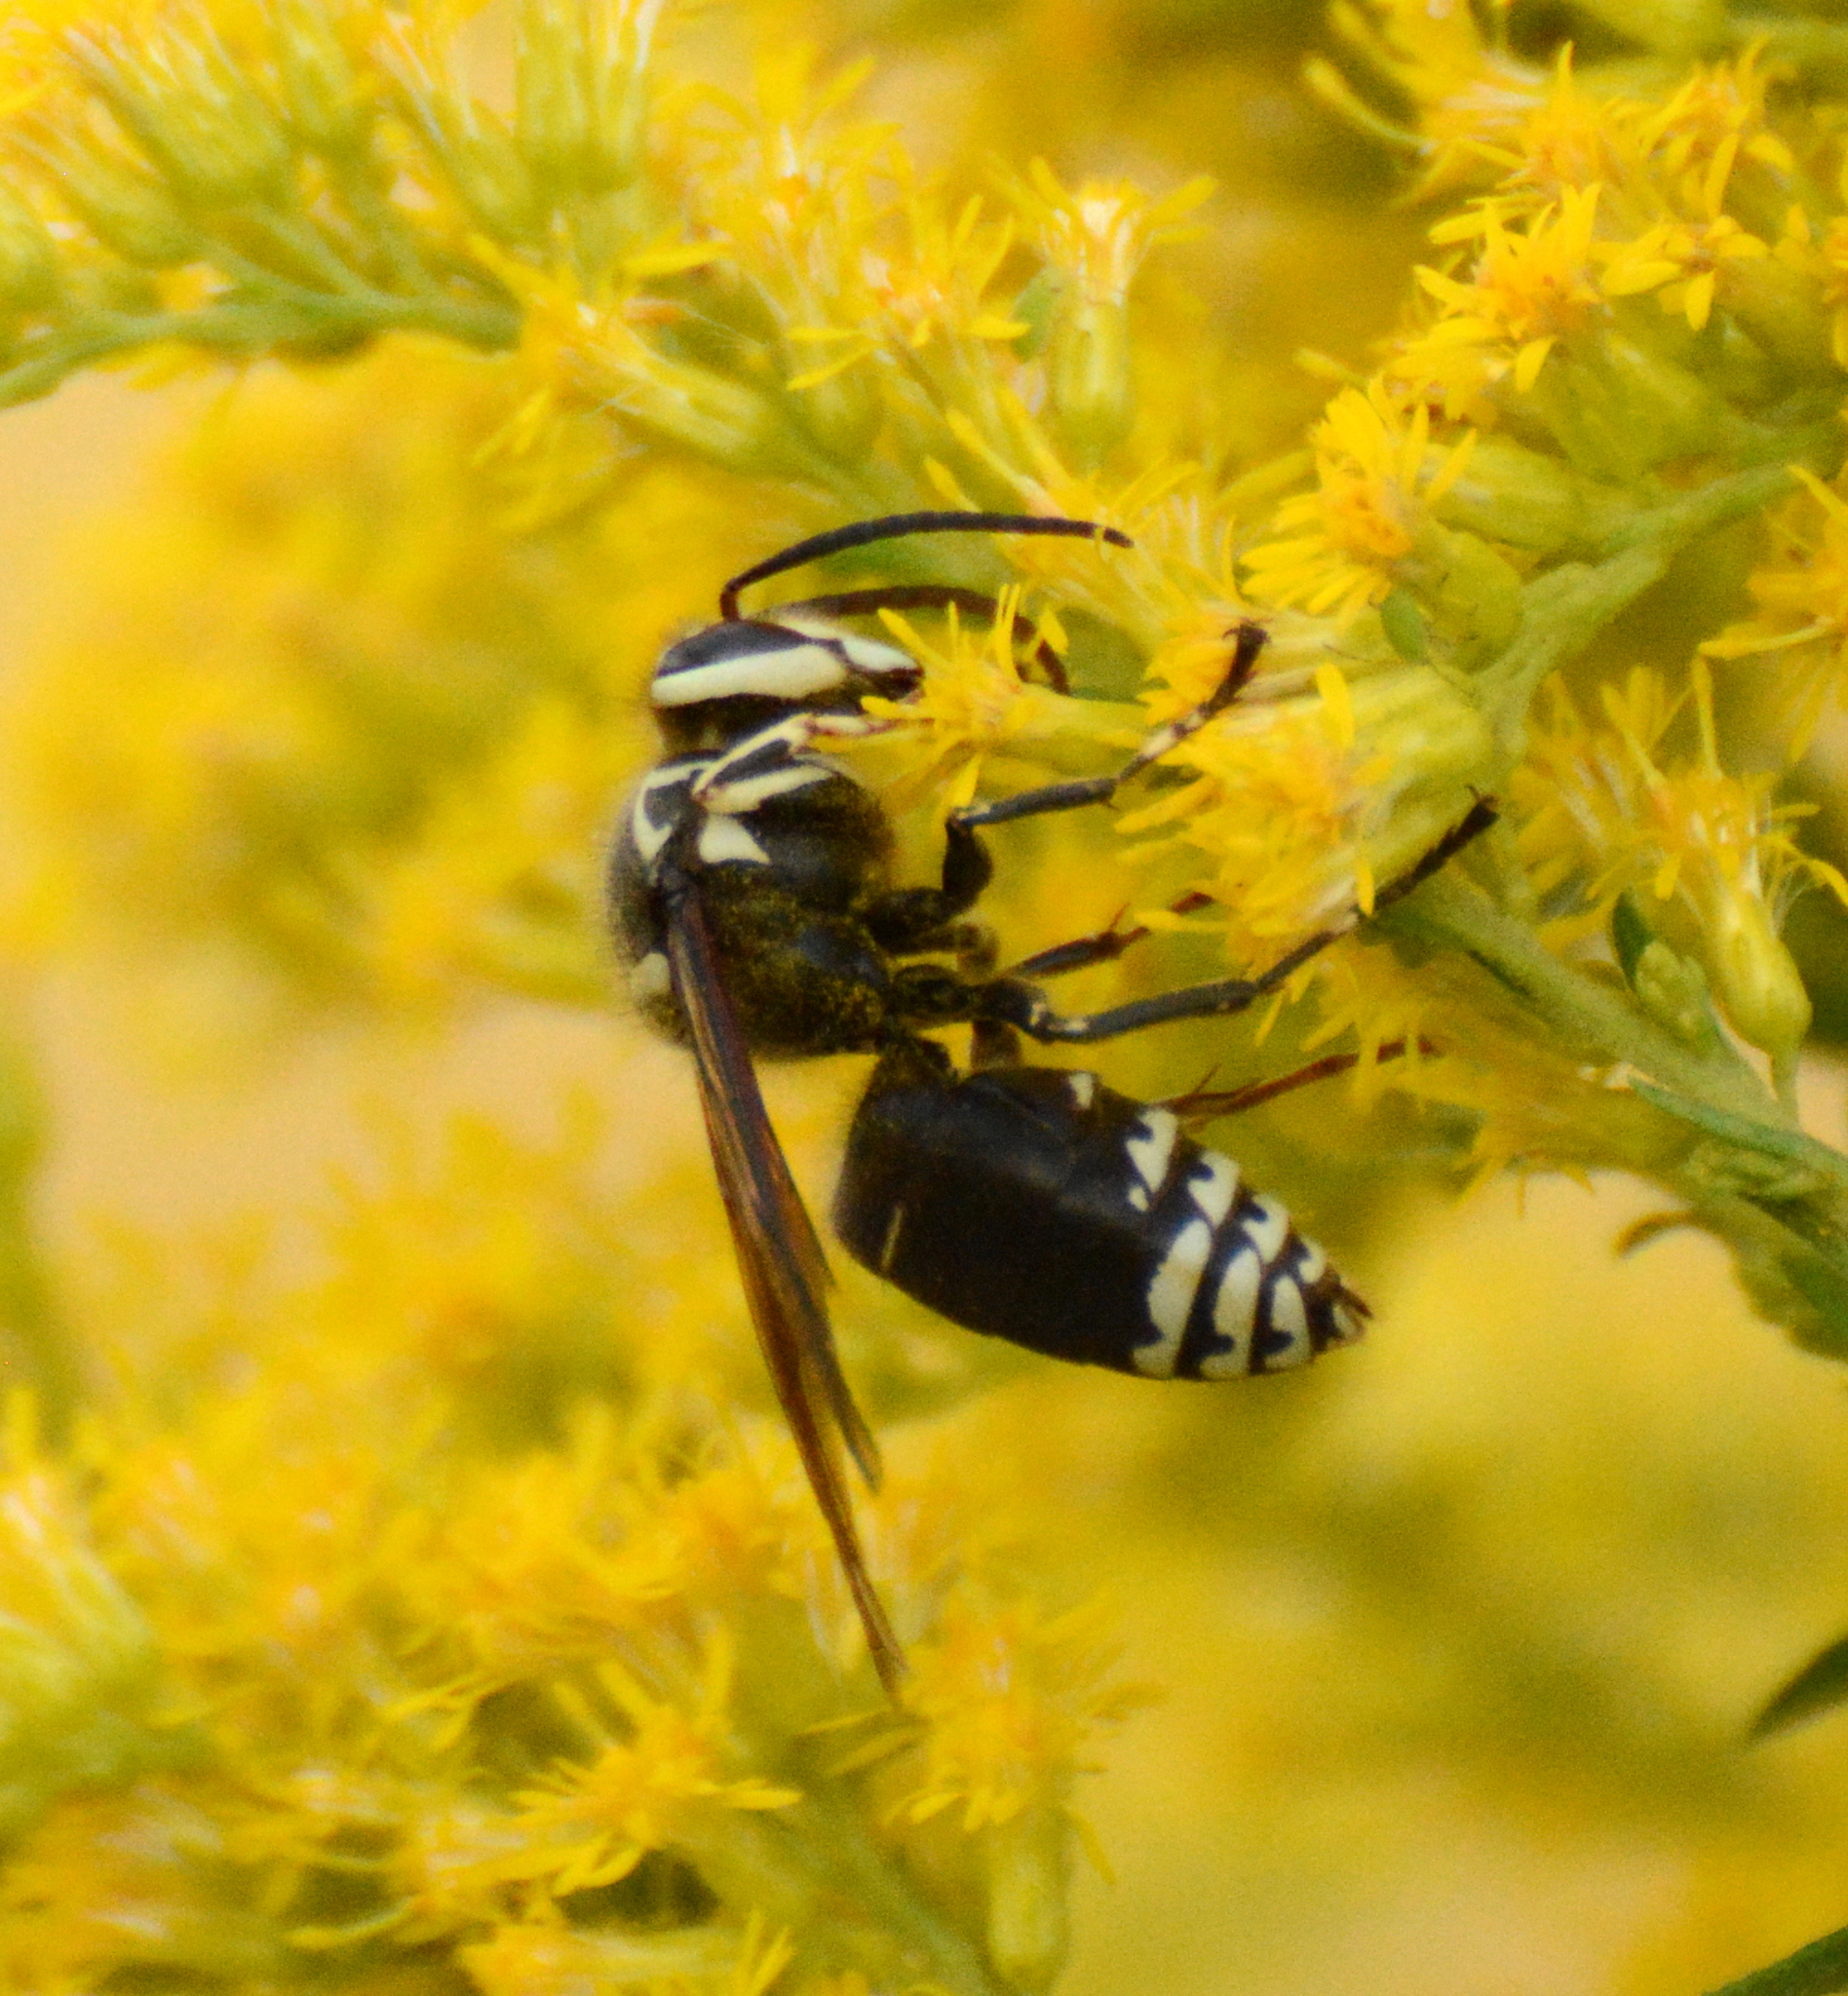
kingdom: Animalia
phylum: Arthropoda
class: Insecta
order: Hymenoptera
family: Vespidae
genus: Dolichovespula
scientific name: Dolichovespula maculata
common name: Bald-faced hornet
